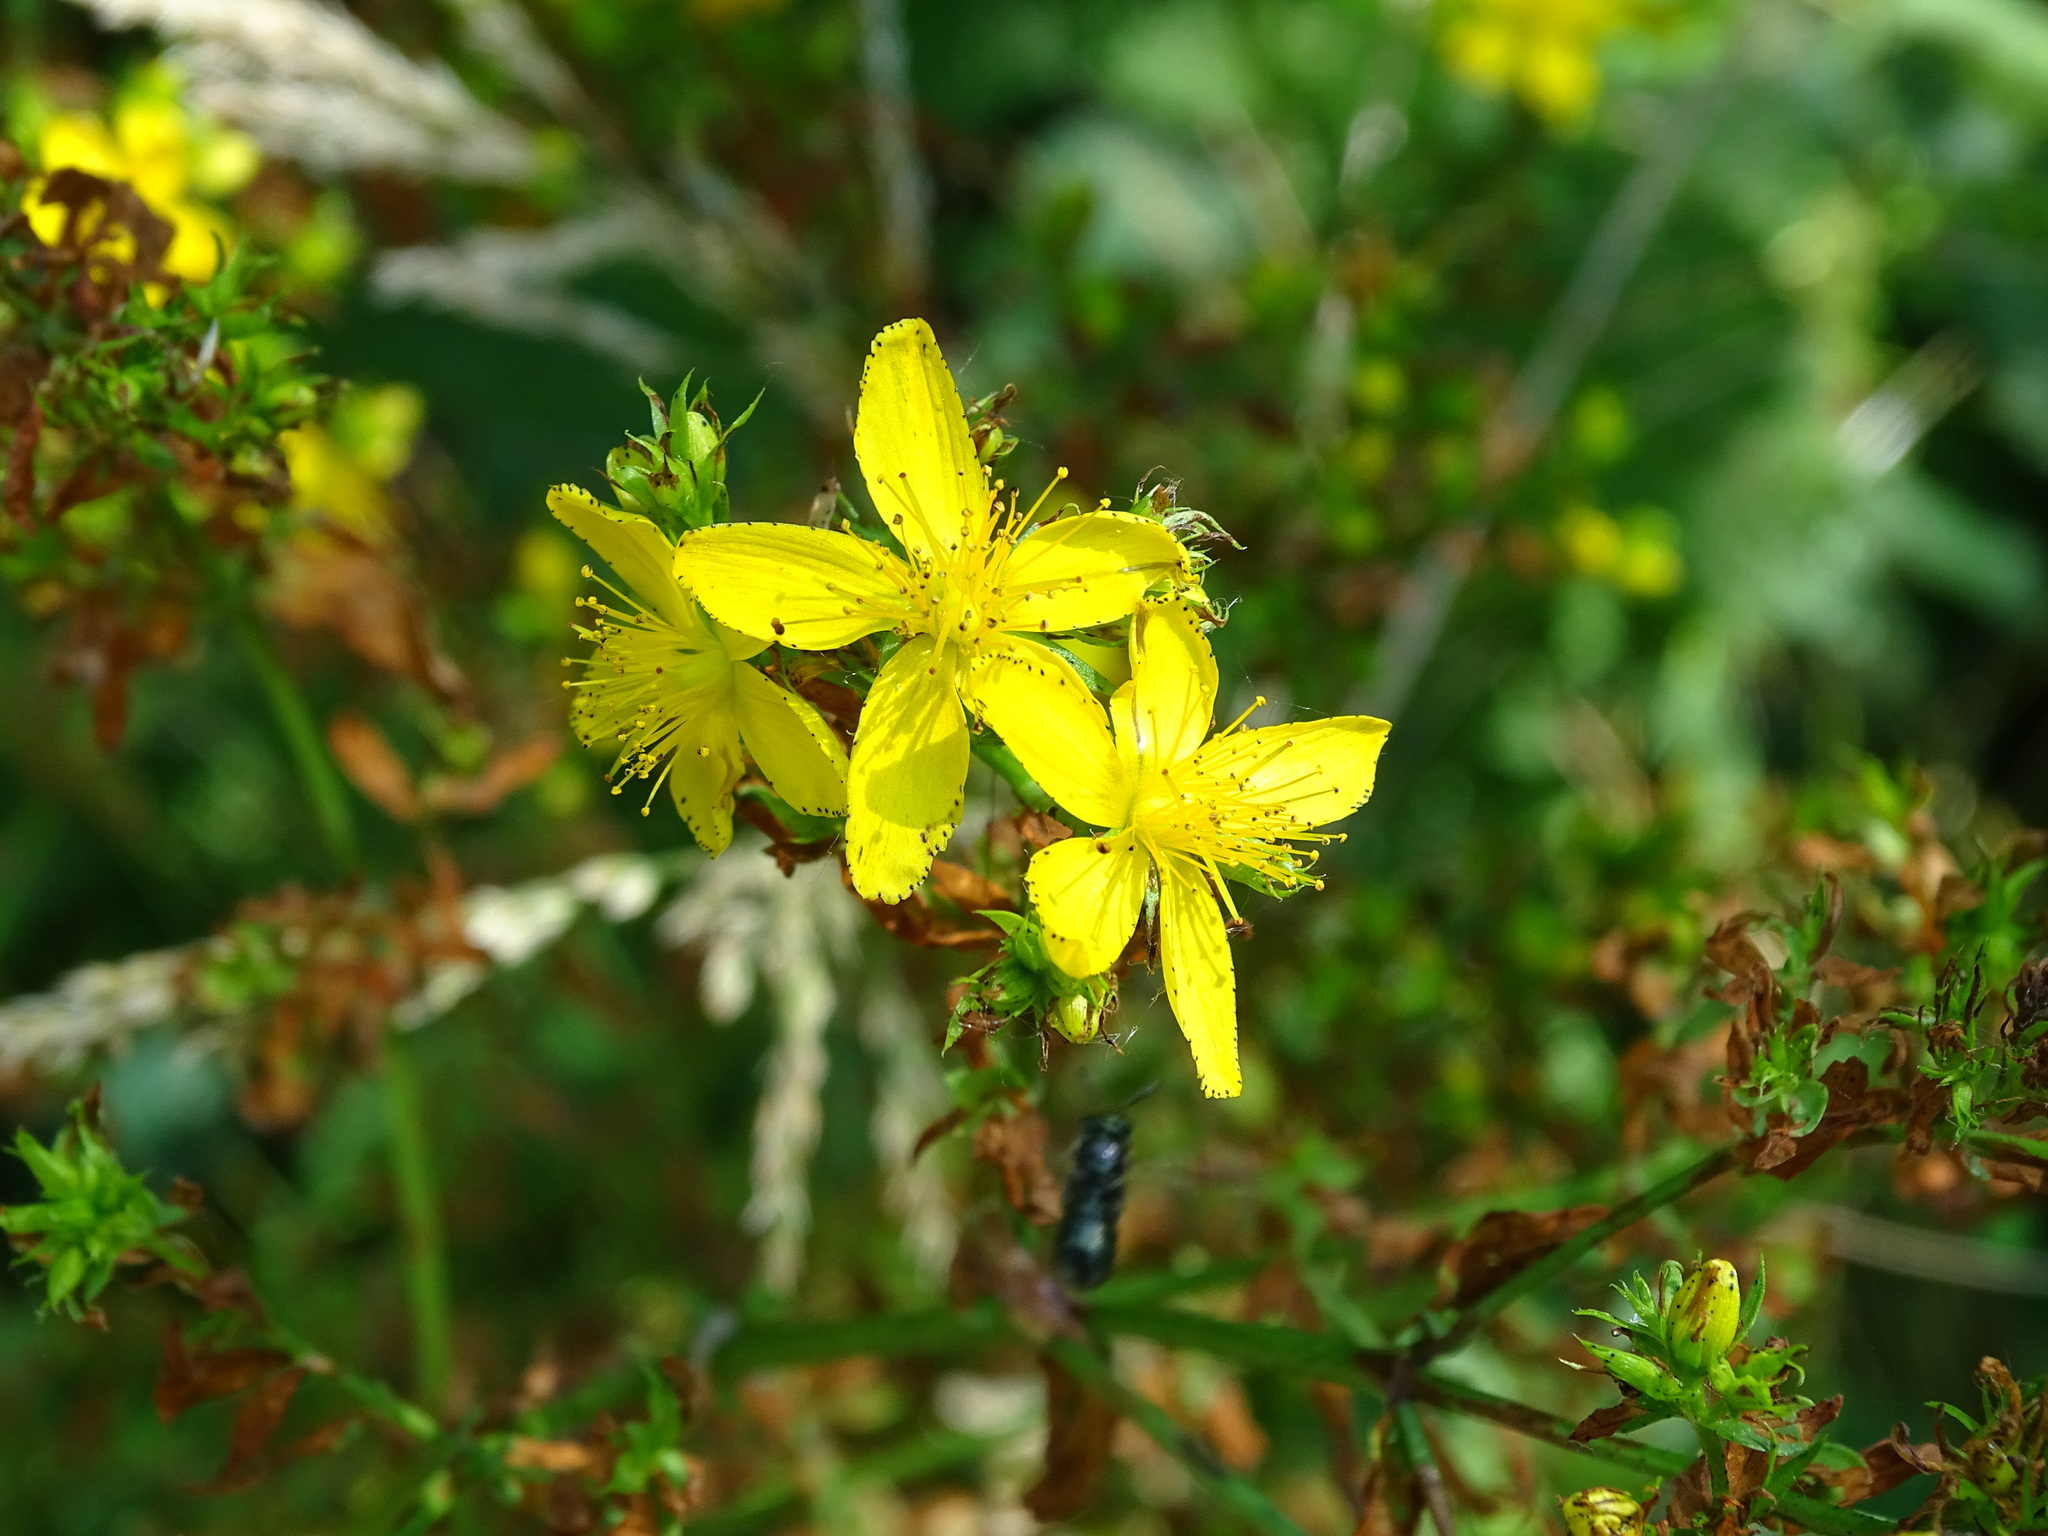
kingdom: Plantae
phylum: Tracheophyta
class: Magnoliopsida
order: Malpighiales
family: Hypericaceae
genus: Hypericum
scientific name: Hypericum perforatum
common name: Common st. johnswort
